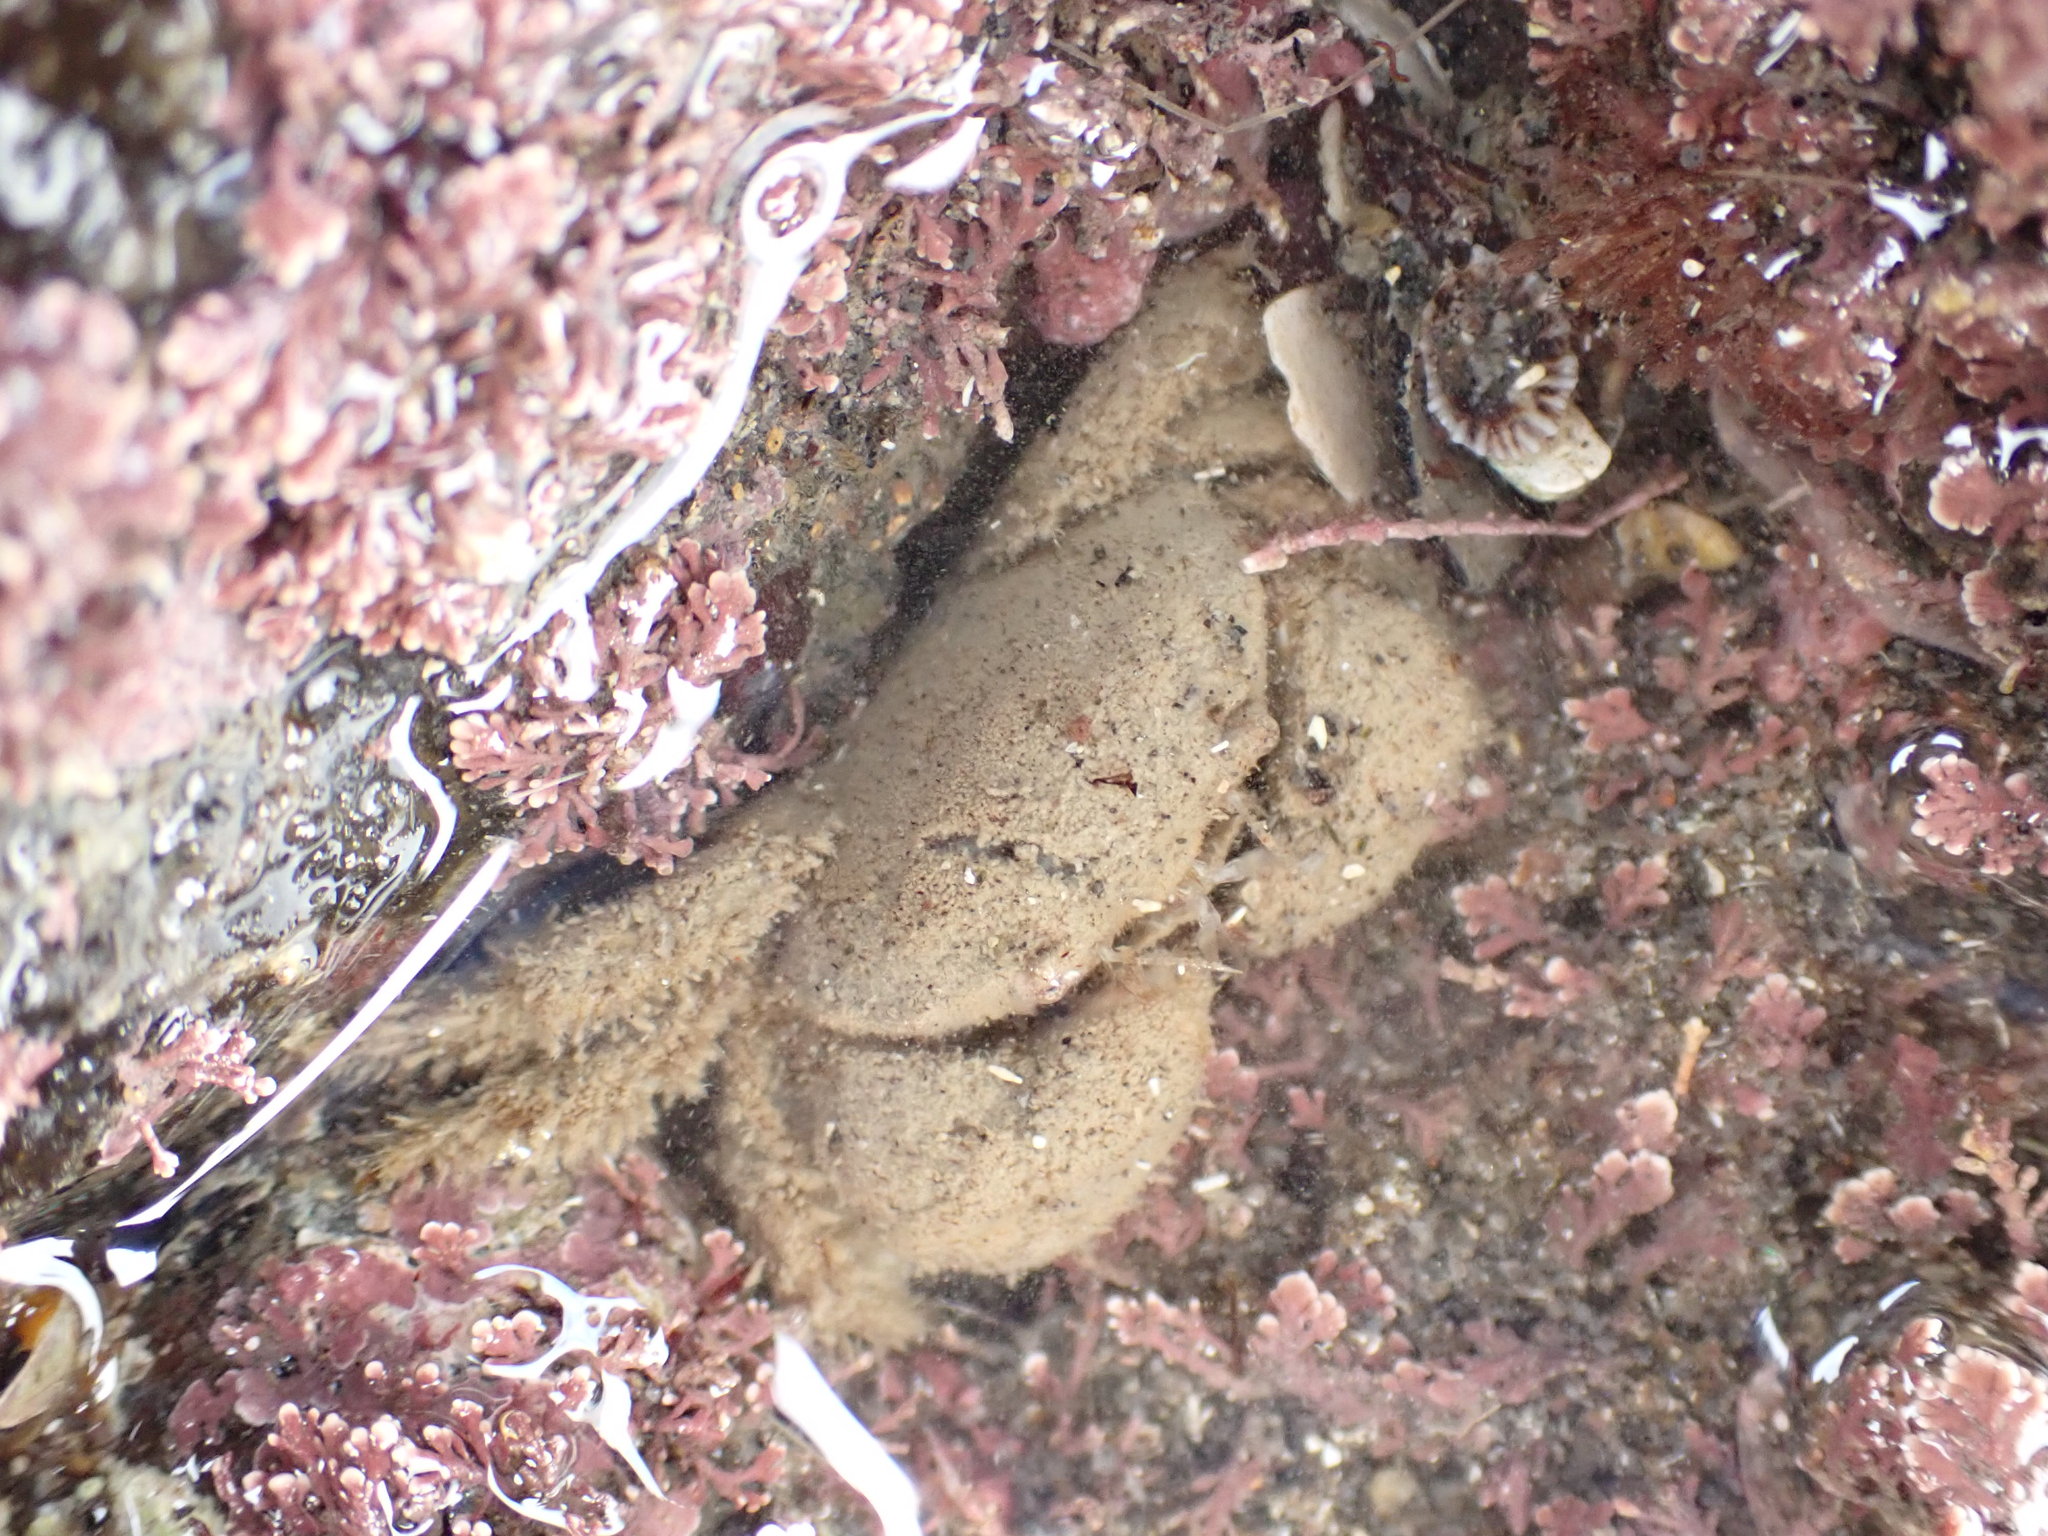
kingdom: Animalia
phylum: Arthropoda
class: Malacostraca
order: Decapoda
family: Pilumnidae
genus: Pilumnus
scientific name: Pilumnus lumpinus
